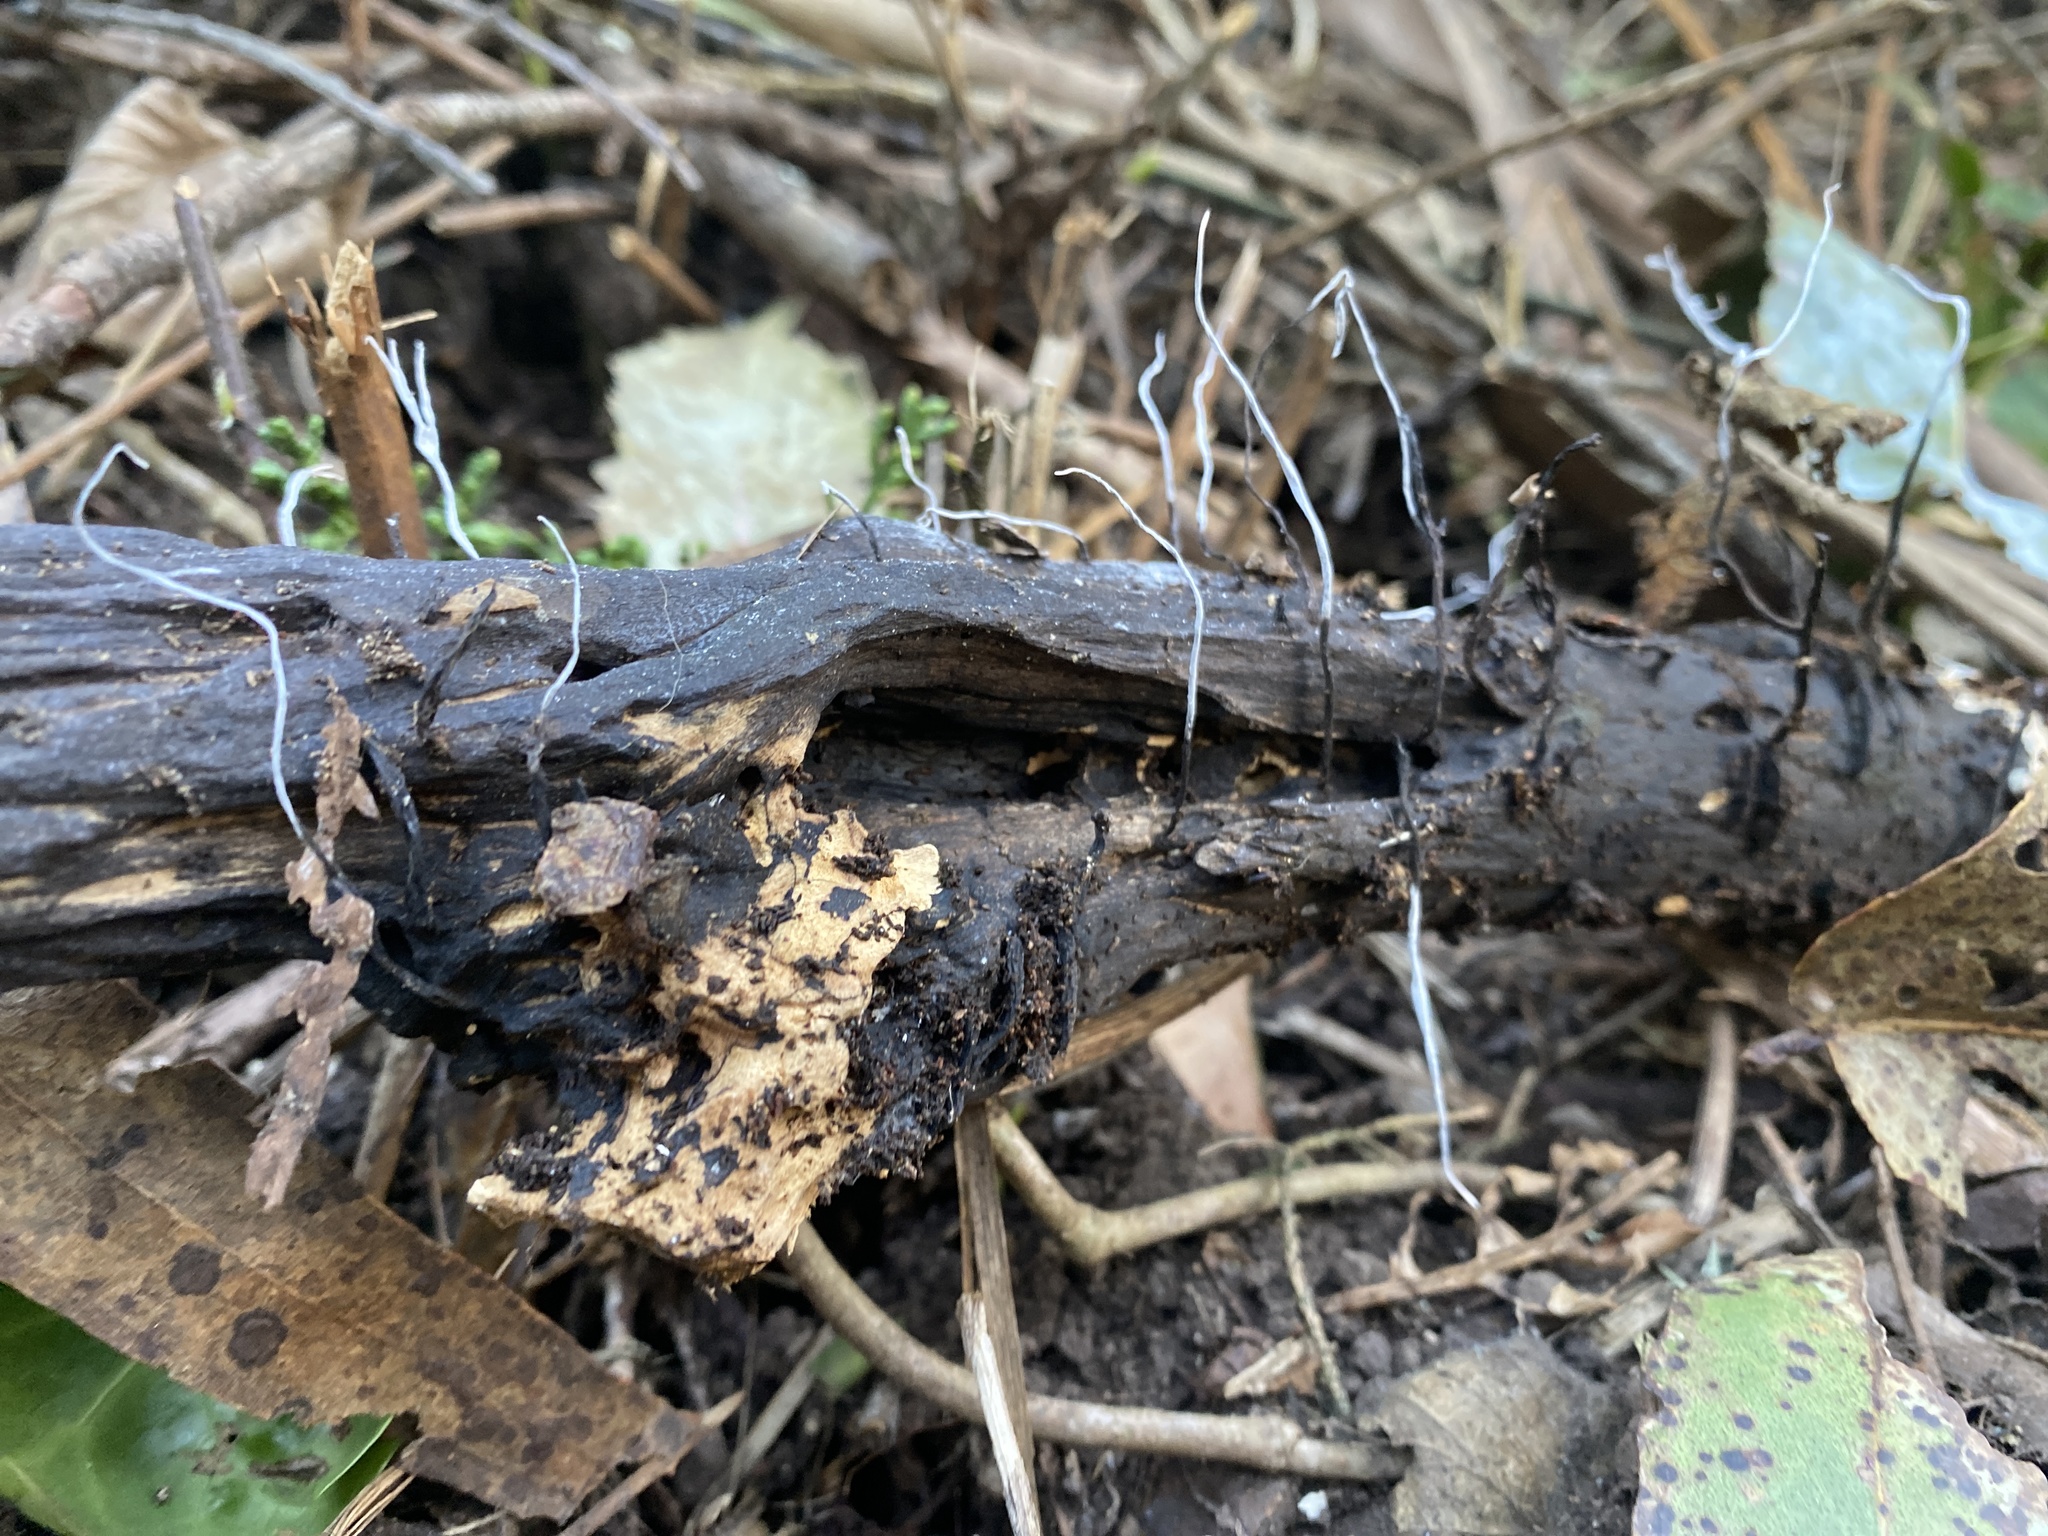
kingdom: Fungi
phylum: Ascomycota
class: Sordariomycetes
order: Xylariales
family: Xylariaceae
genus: Xylaria
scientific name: Xylaria hypoxylon
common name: Candle-snuff fungus
